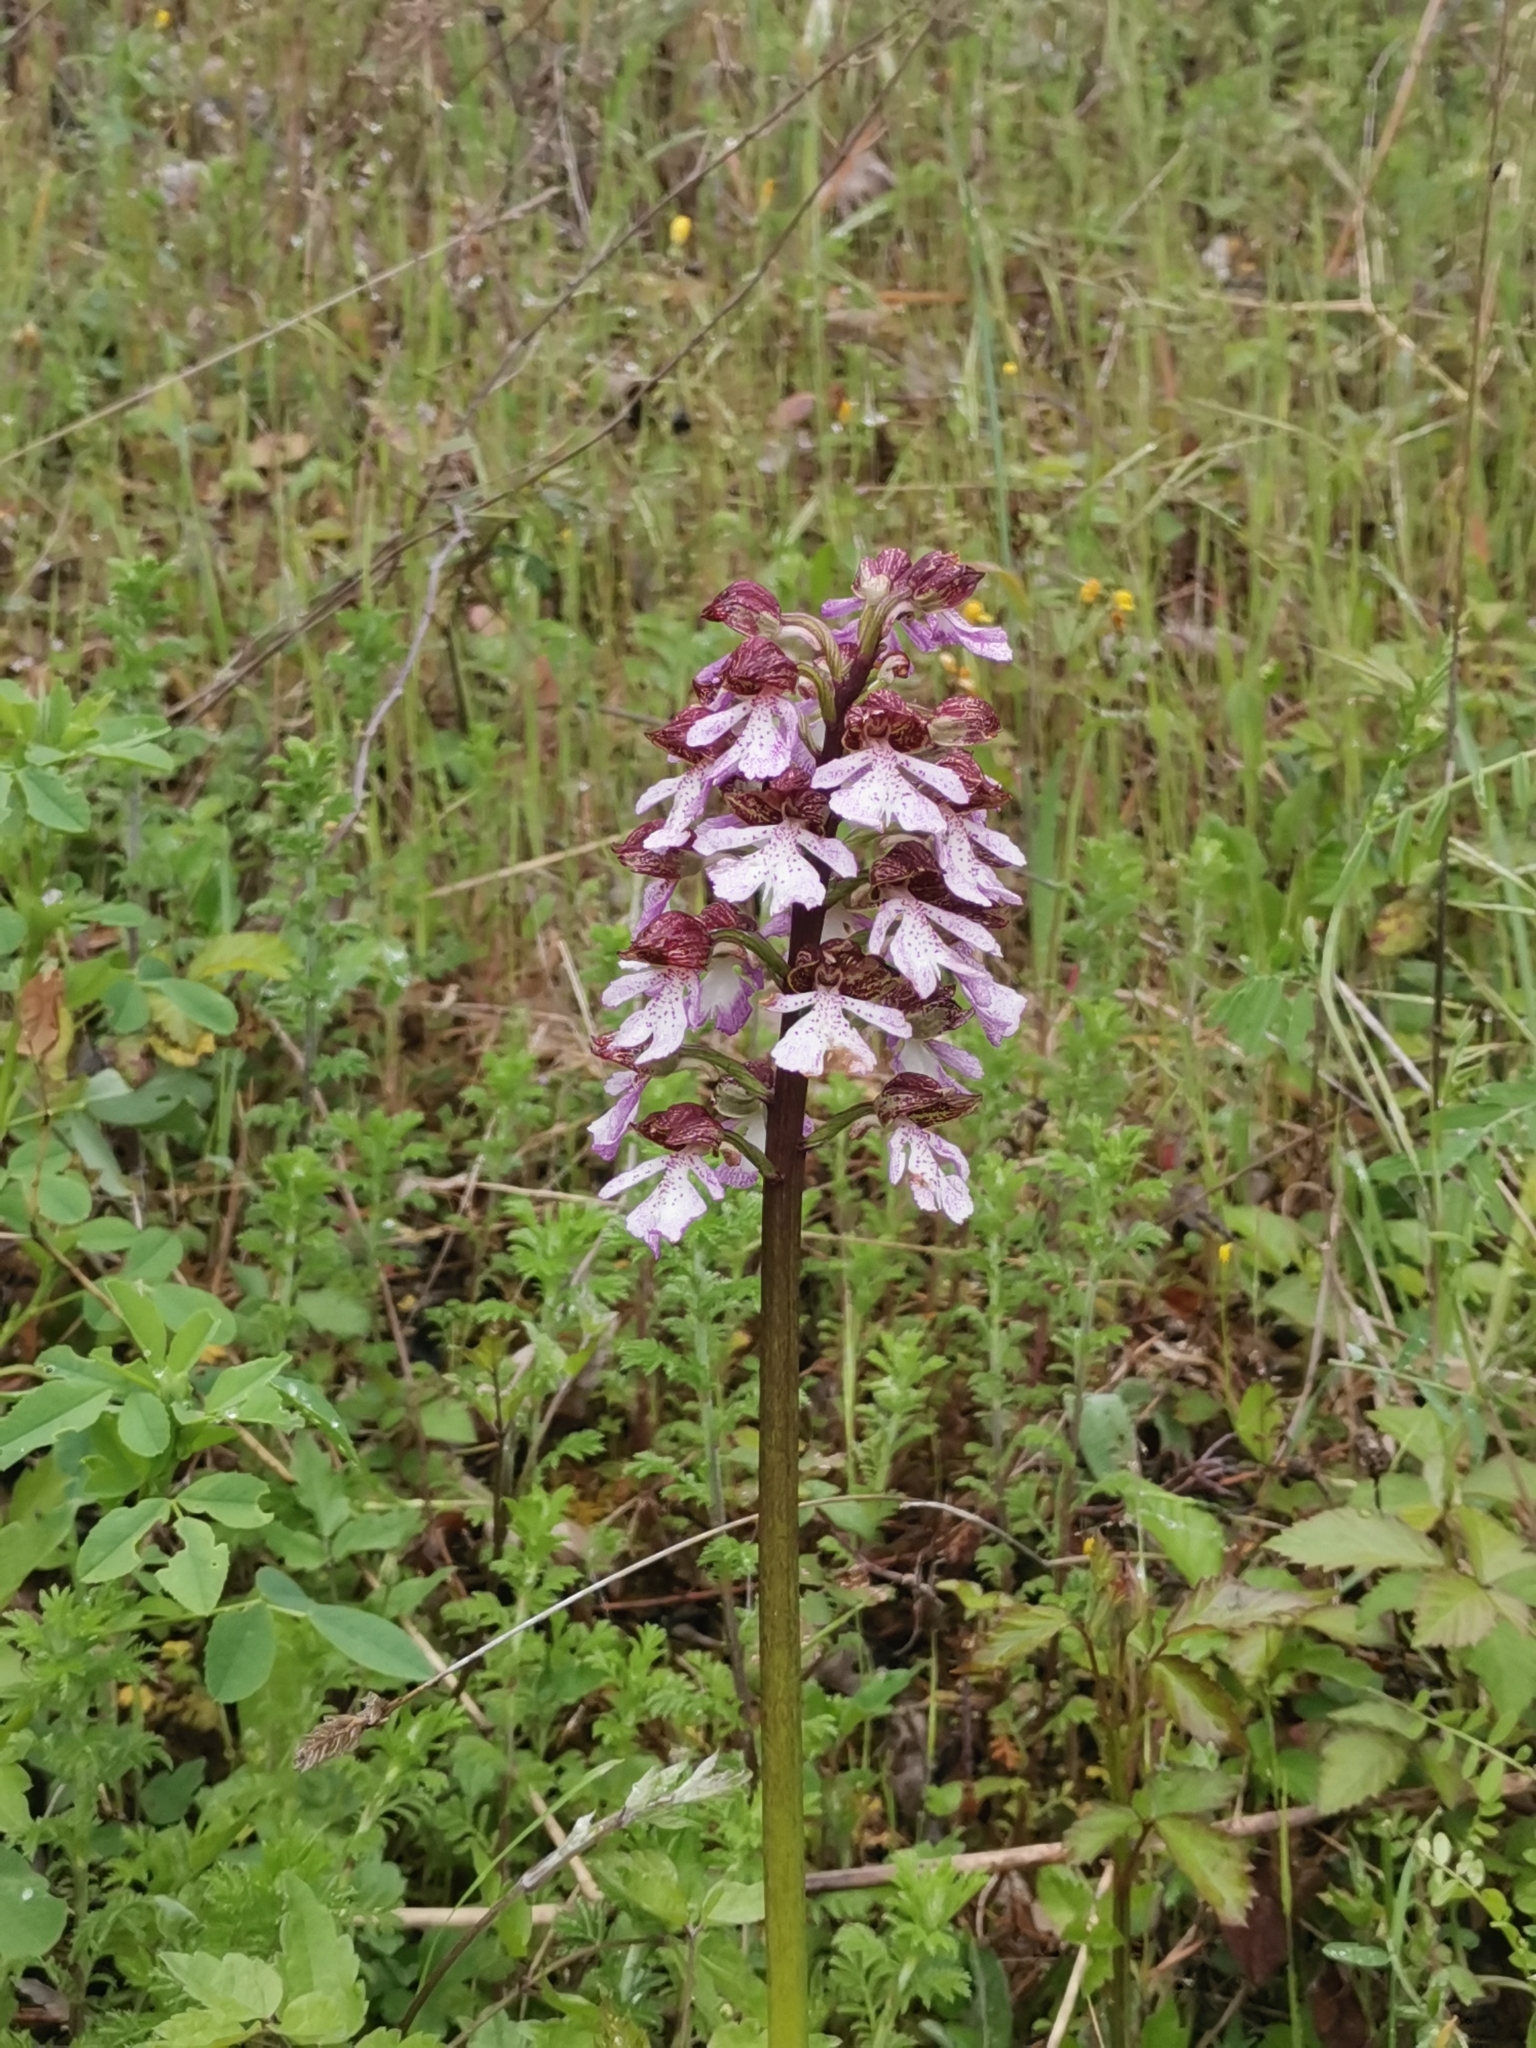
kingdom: Plantae
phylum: Tracheophyta
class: Liliopsida
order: Asparagales
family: Orchidaceae
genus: Orchis
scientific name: Orchis purpurea
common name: Lady orchid
